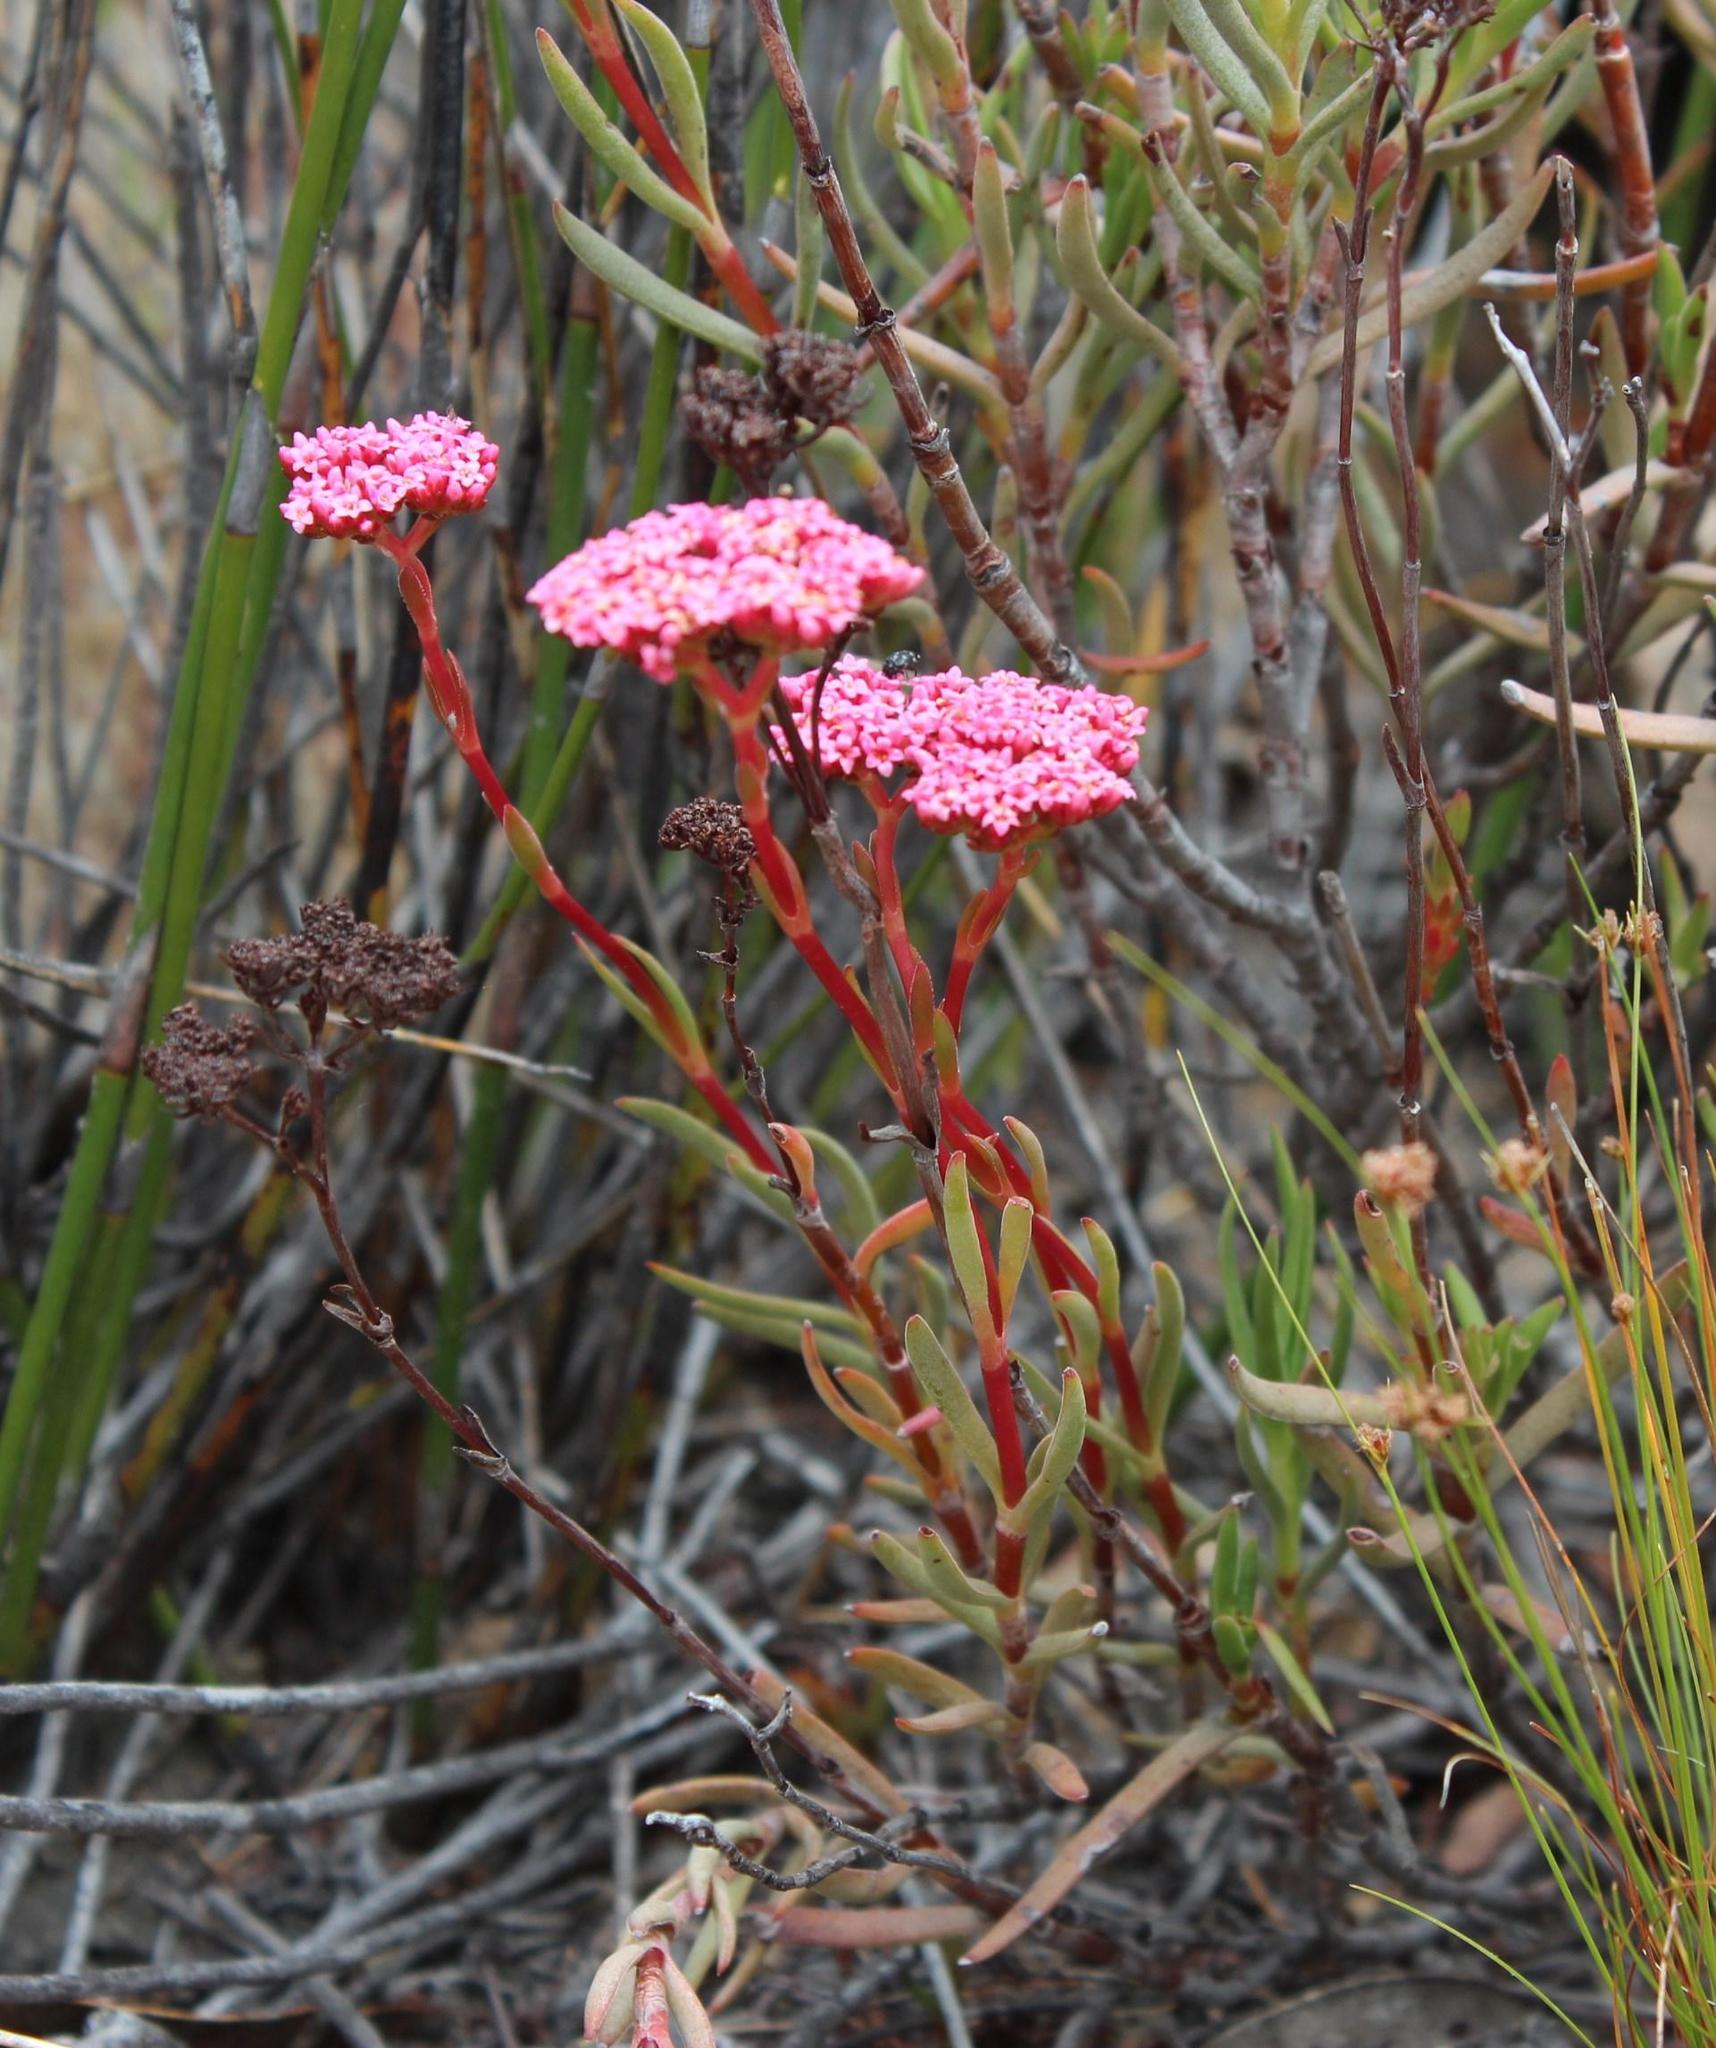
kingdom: Plantae
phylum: Tracheophyta
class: Magnoliopsida
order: Saxifragales
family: Crassulaceae
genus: Crassula
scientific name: Crassula multiflora
